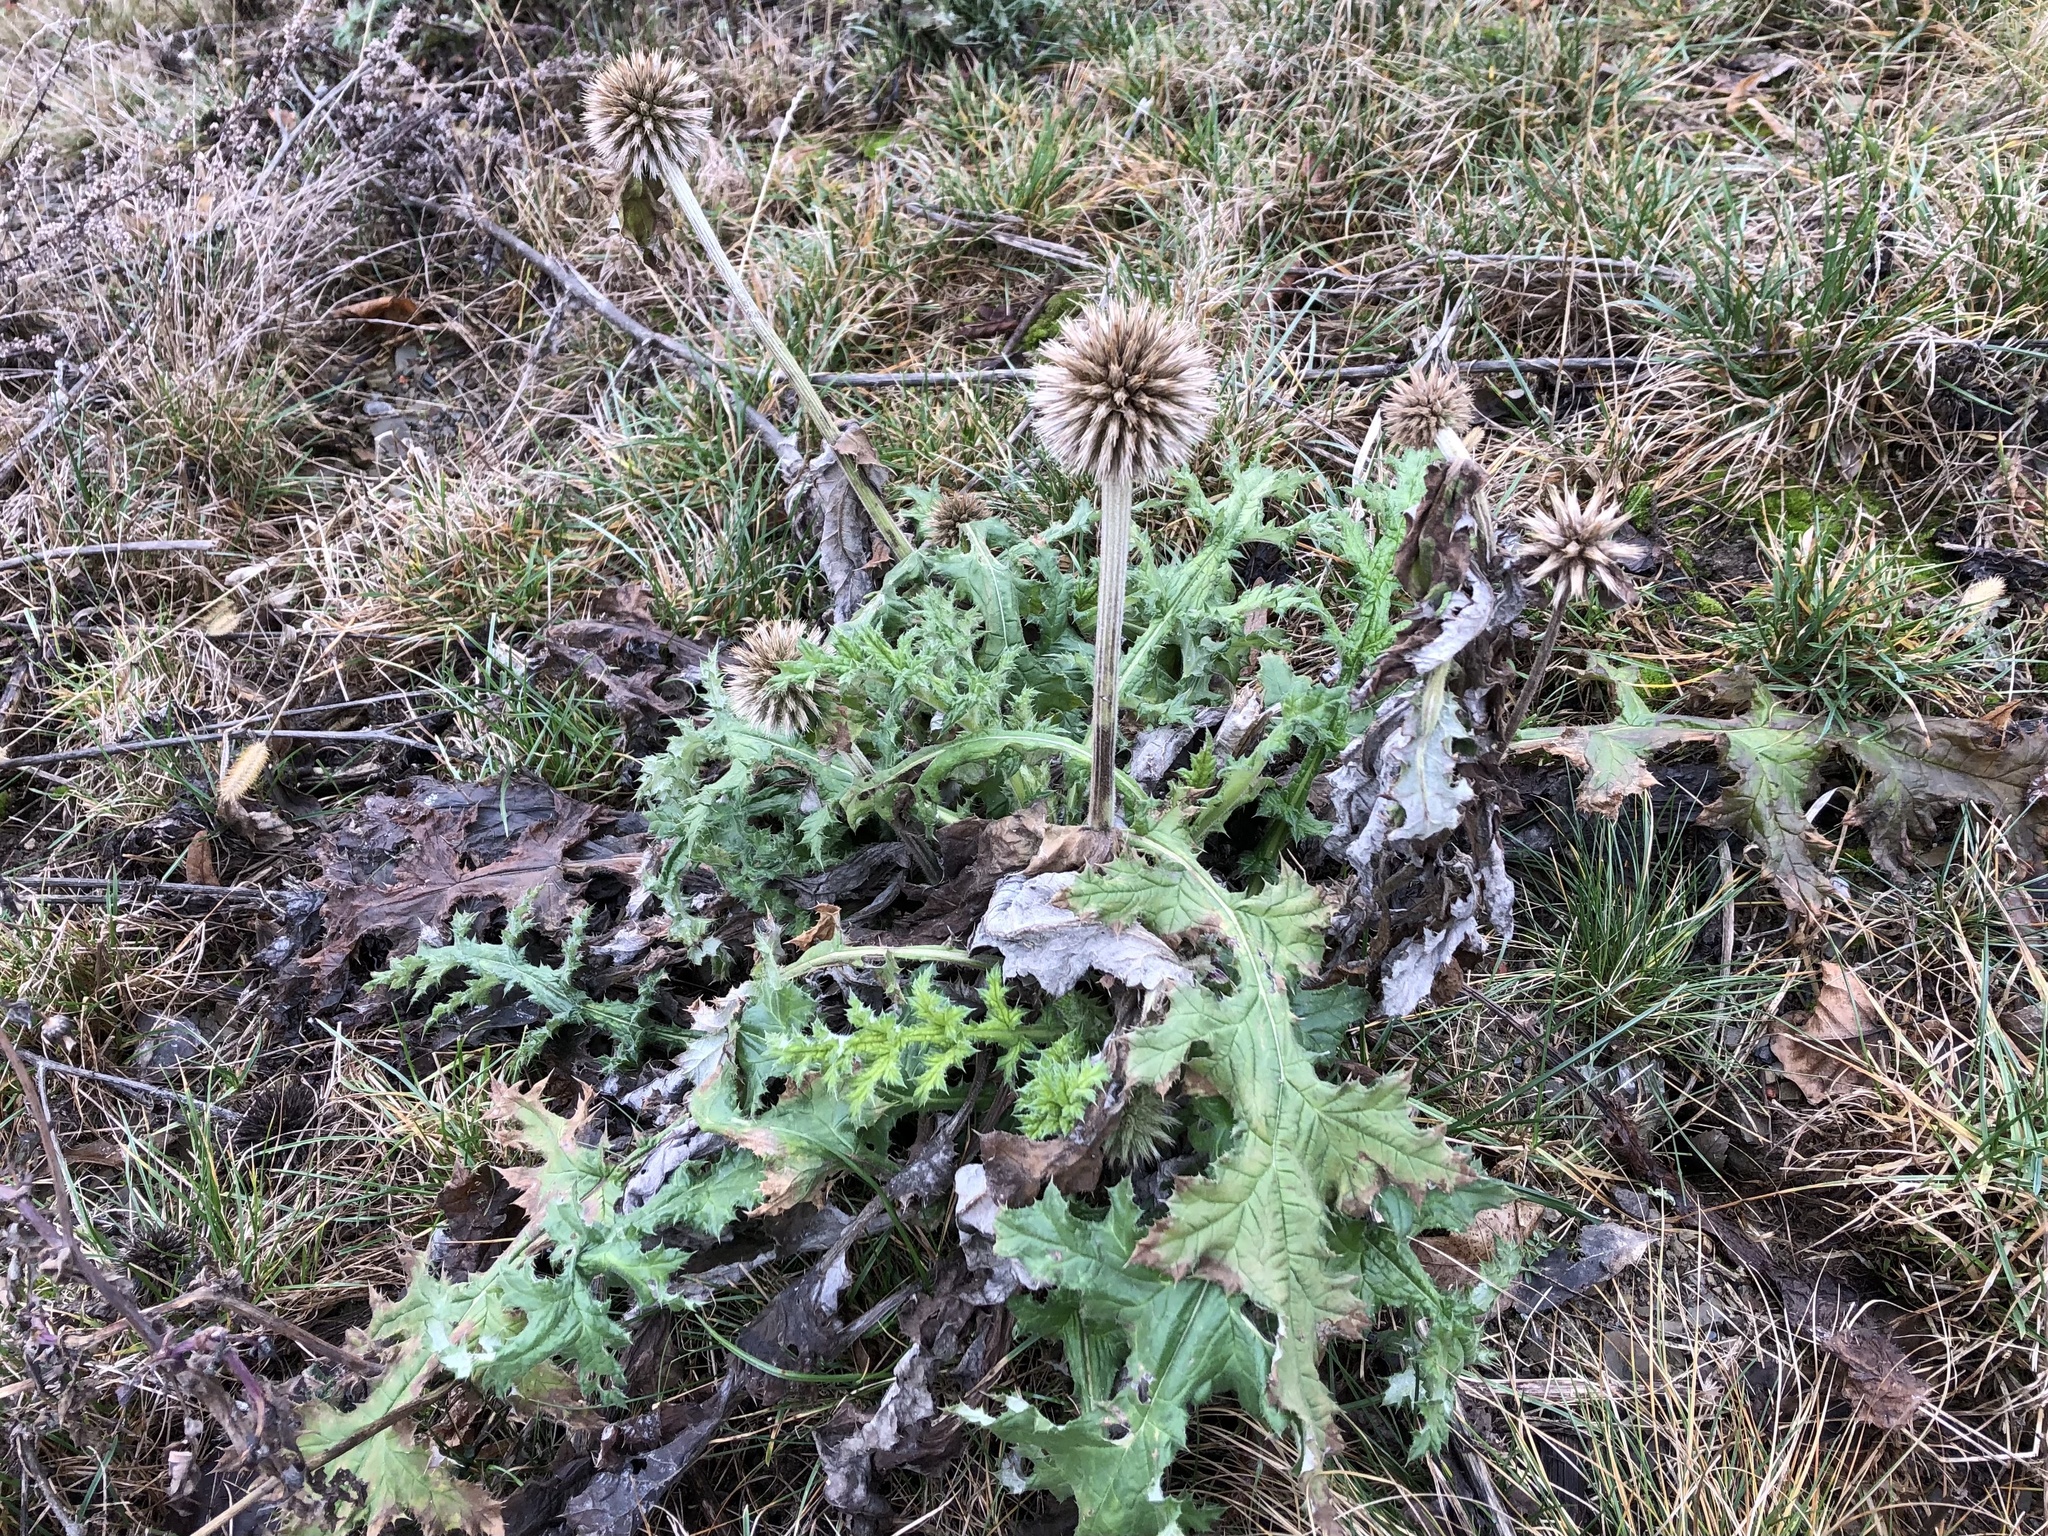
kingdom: Plantae
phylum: Tracheophyta
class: Magnoliopsida
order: Asterales
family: Asteraceae
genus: Echinops
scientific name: Echinops sphaerocephalus
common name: Glandular globe-thistle
